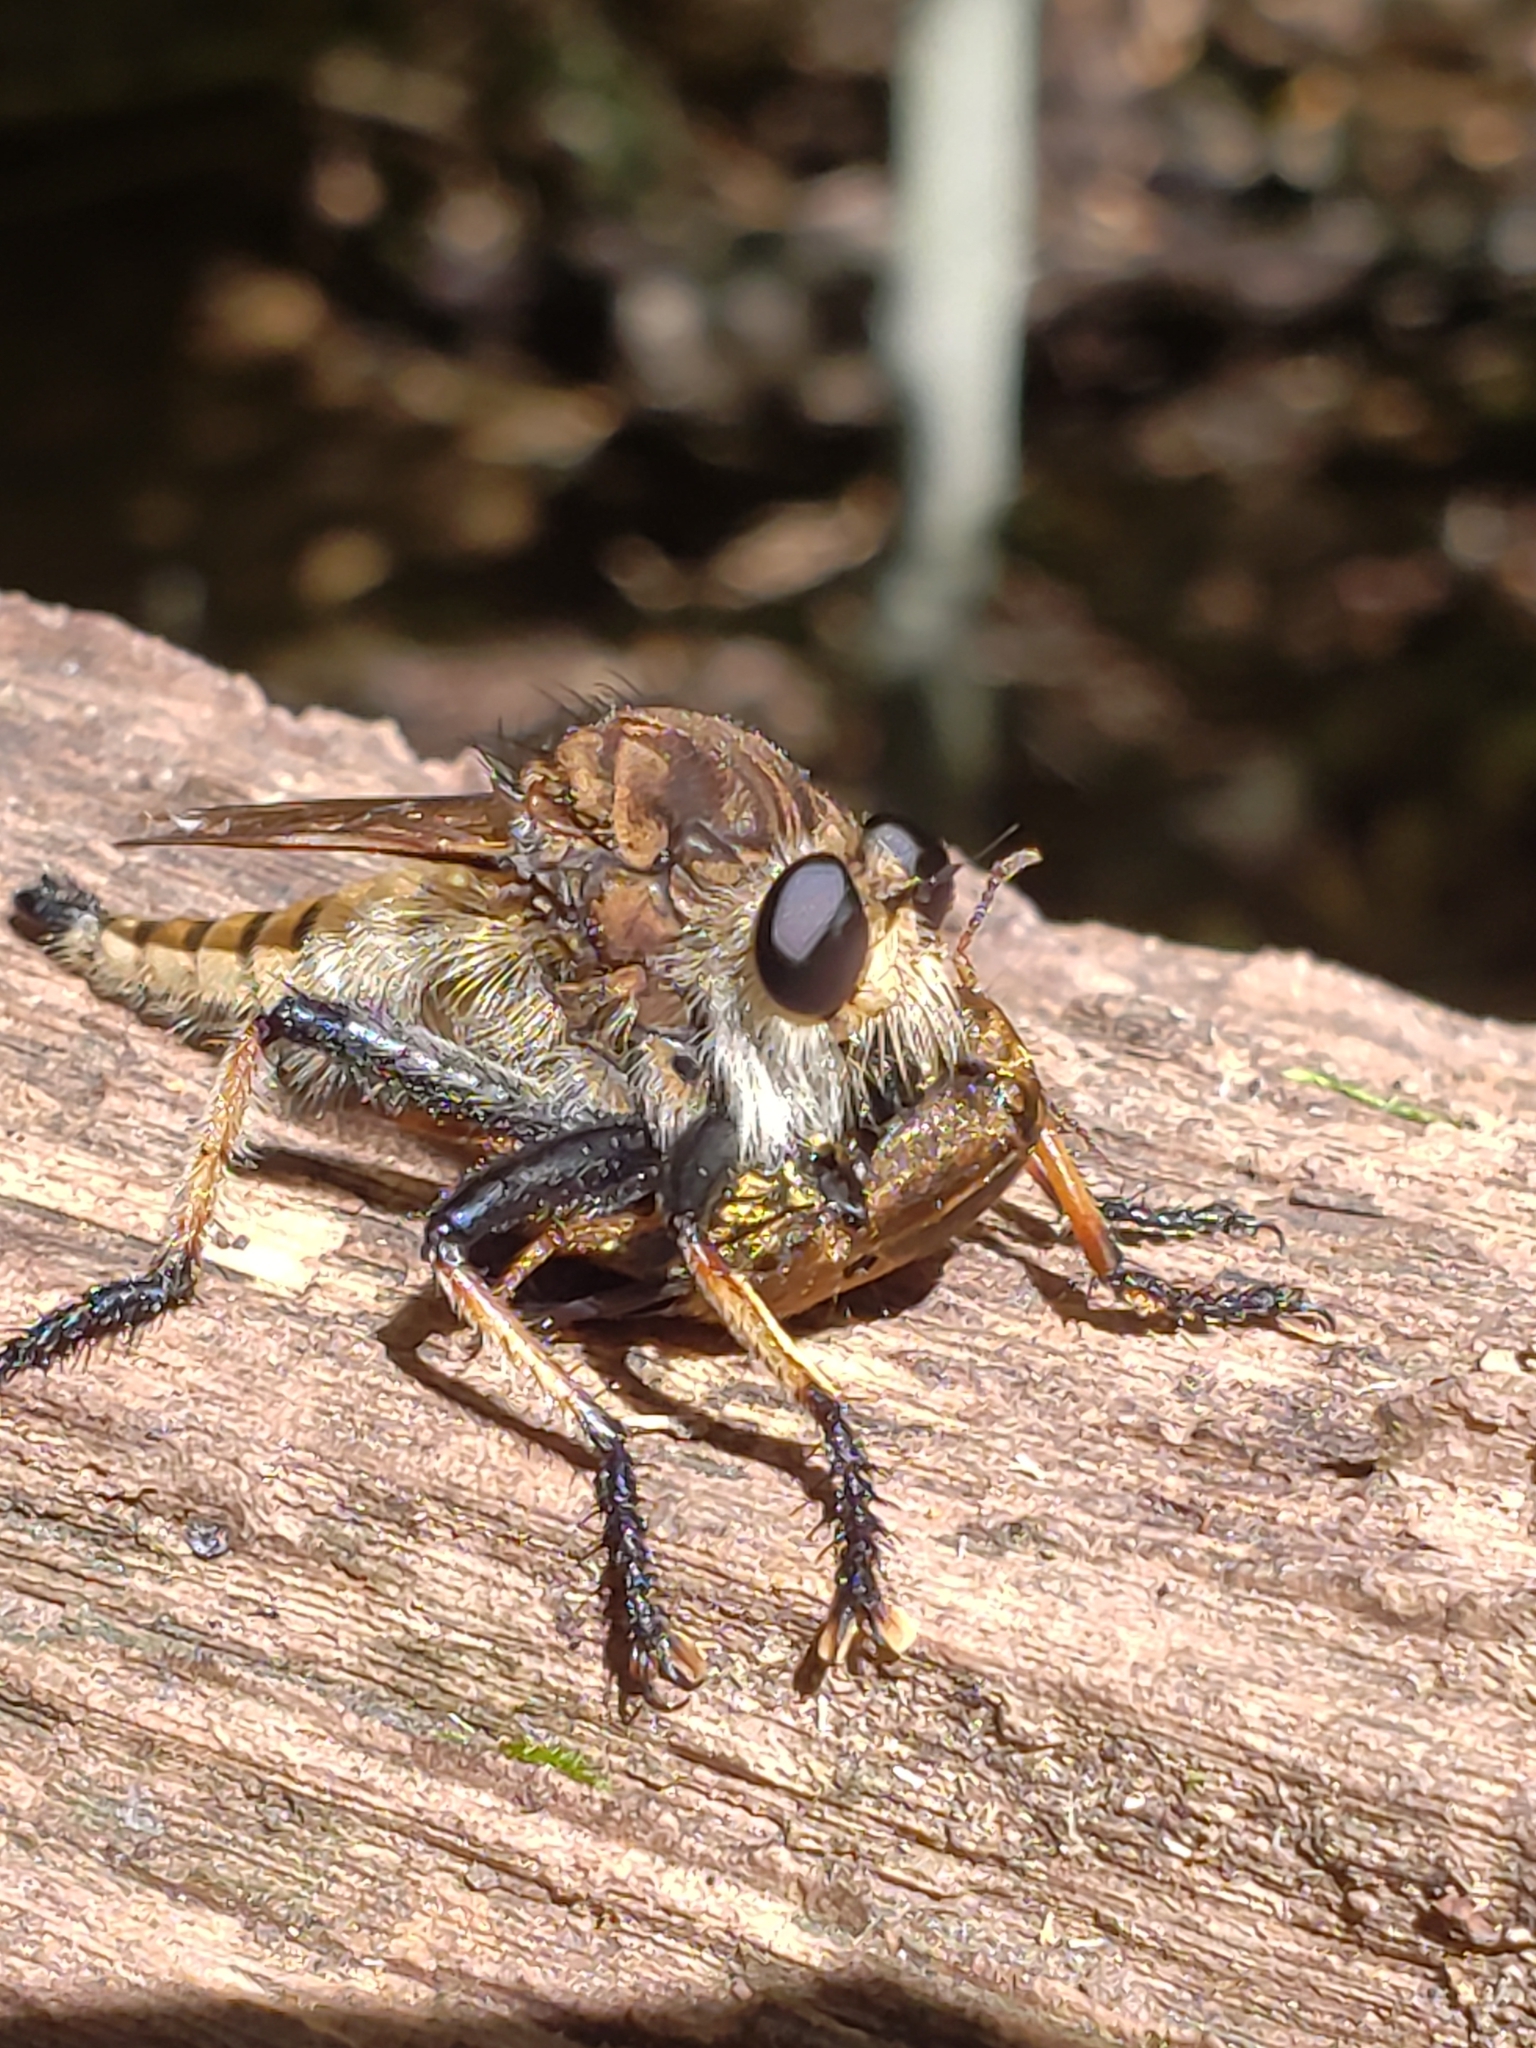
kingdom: Animalia
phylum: Arthropoda
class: Insecta
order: Diptera
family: Asilidae
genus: Promachus
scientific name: Promachus rufipes
